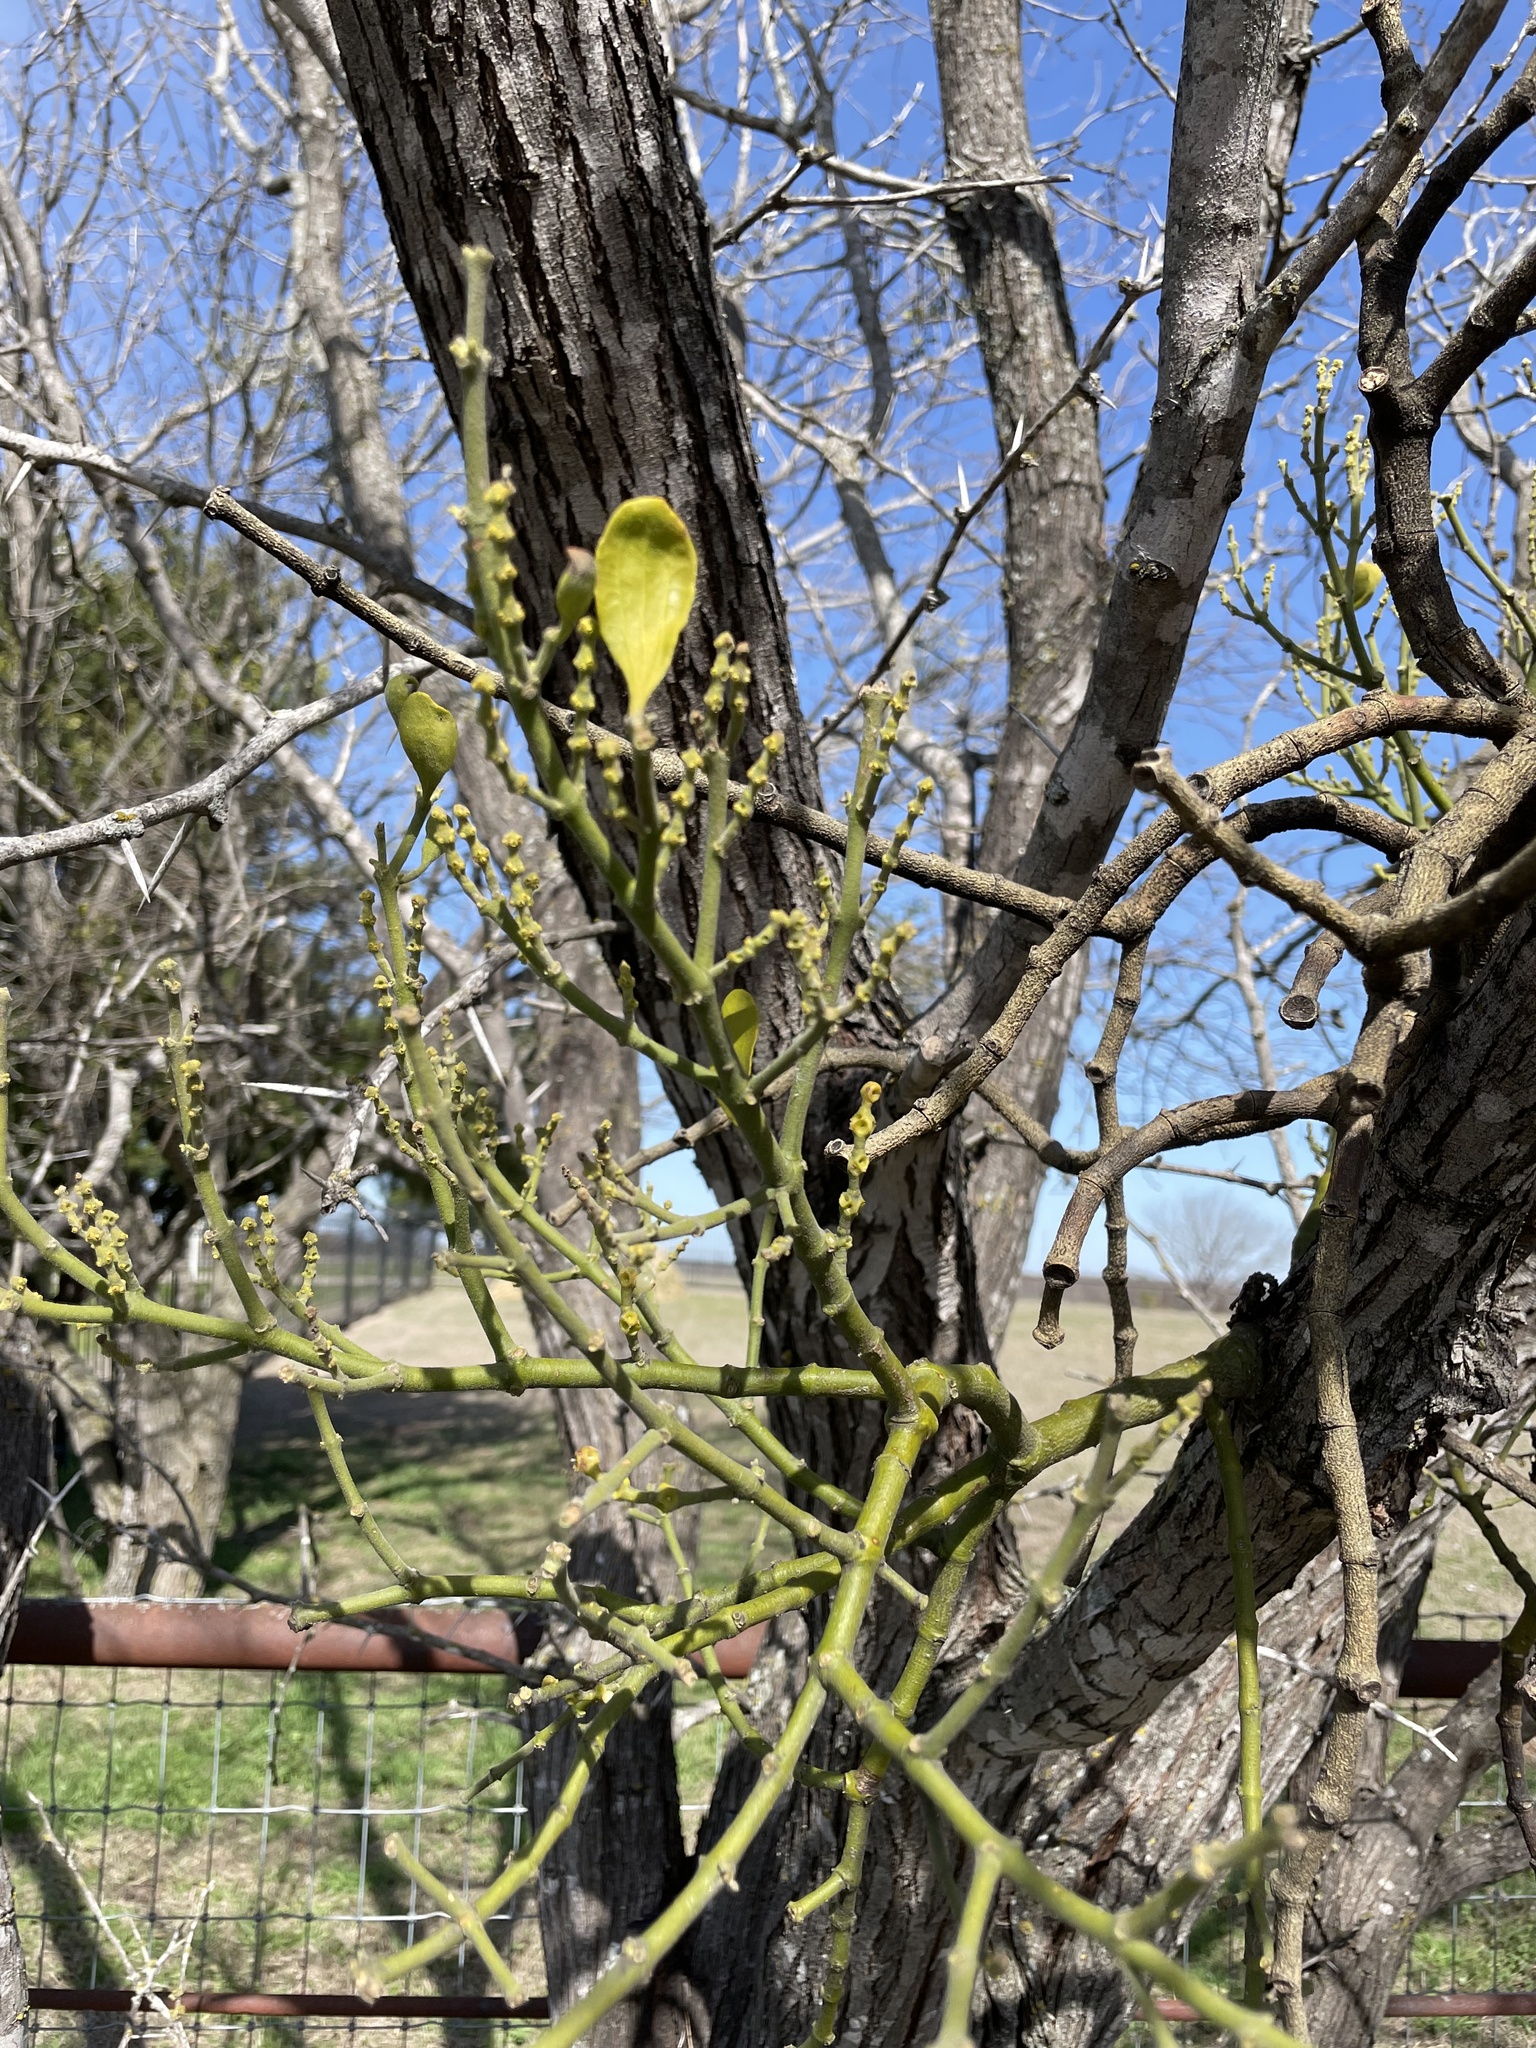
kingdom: Plantae
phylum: Tracheophyta
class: Magnoliopsida
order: Santalales
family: Viscaceae
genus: Phoradendron
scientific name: Phoradendron leucarpum
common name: Pacific mistletoe
